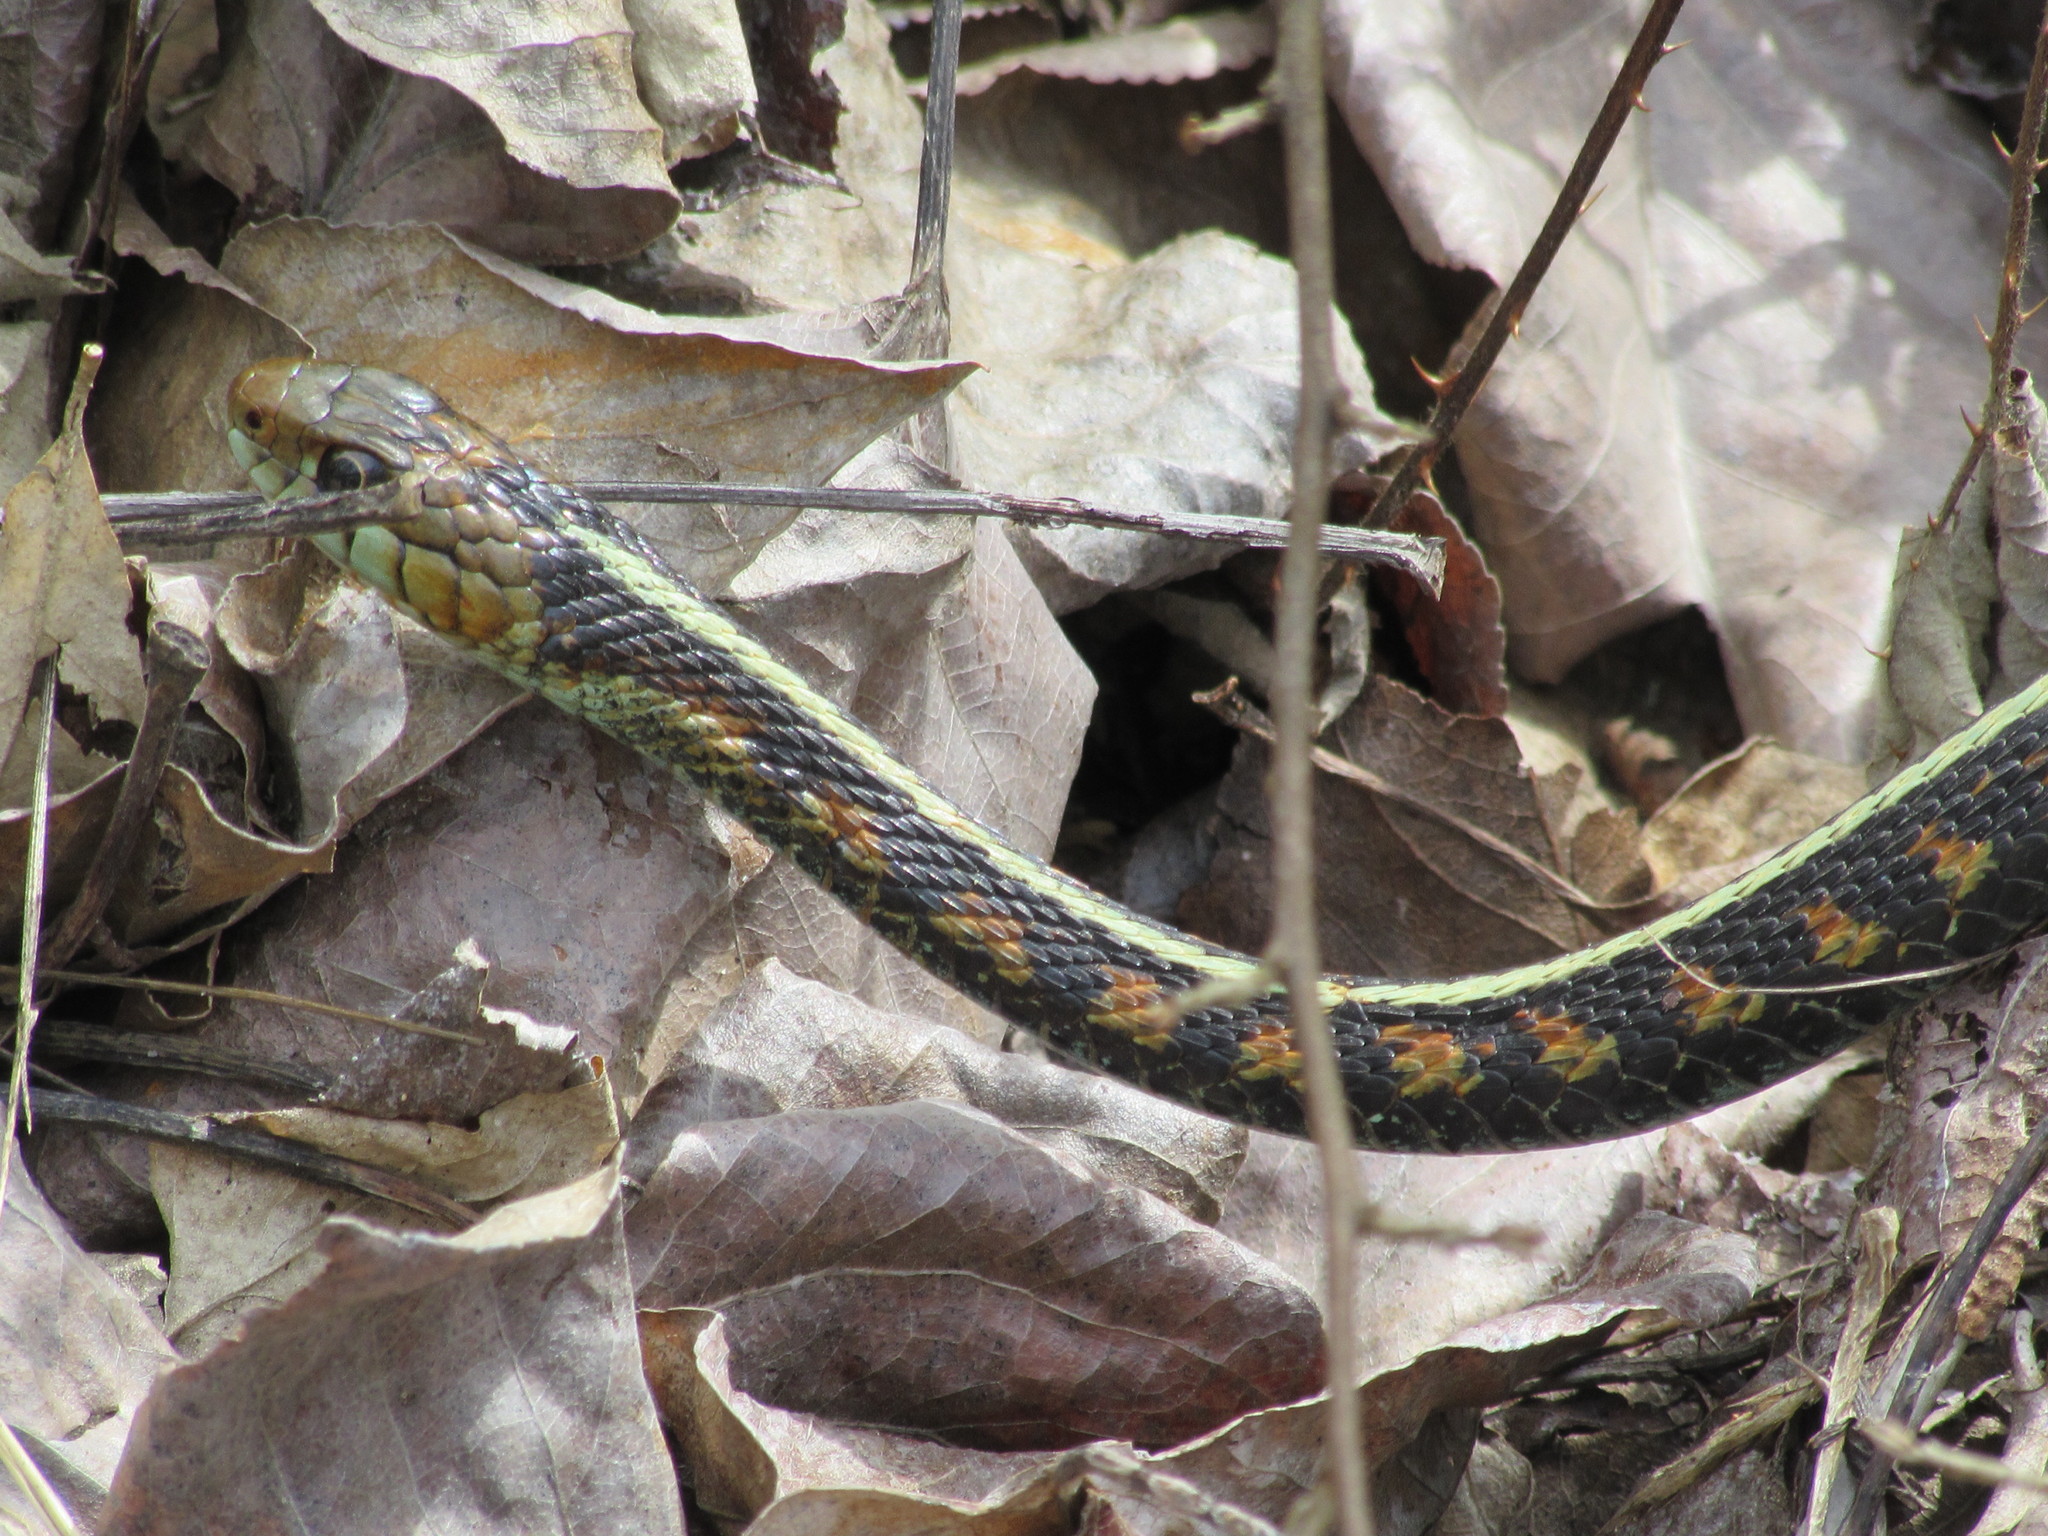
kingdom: Animalia
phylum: Chordata
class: Squamata
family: Colubridae
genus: Thamnophis
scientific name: Thamnophis sirtalis
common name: Common garter snake
